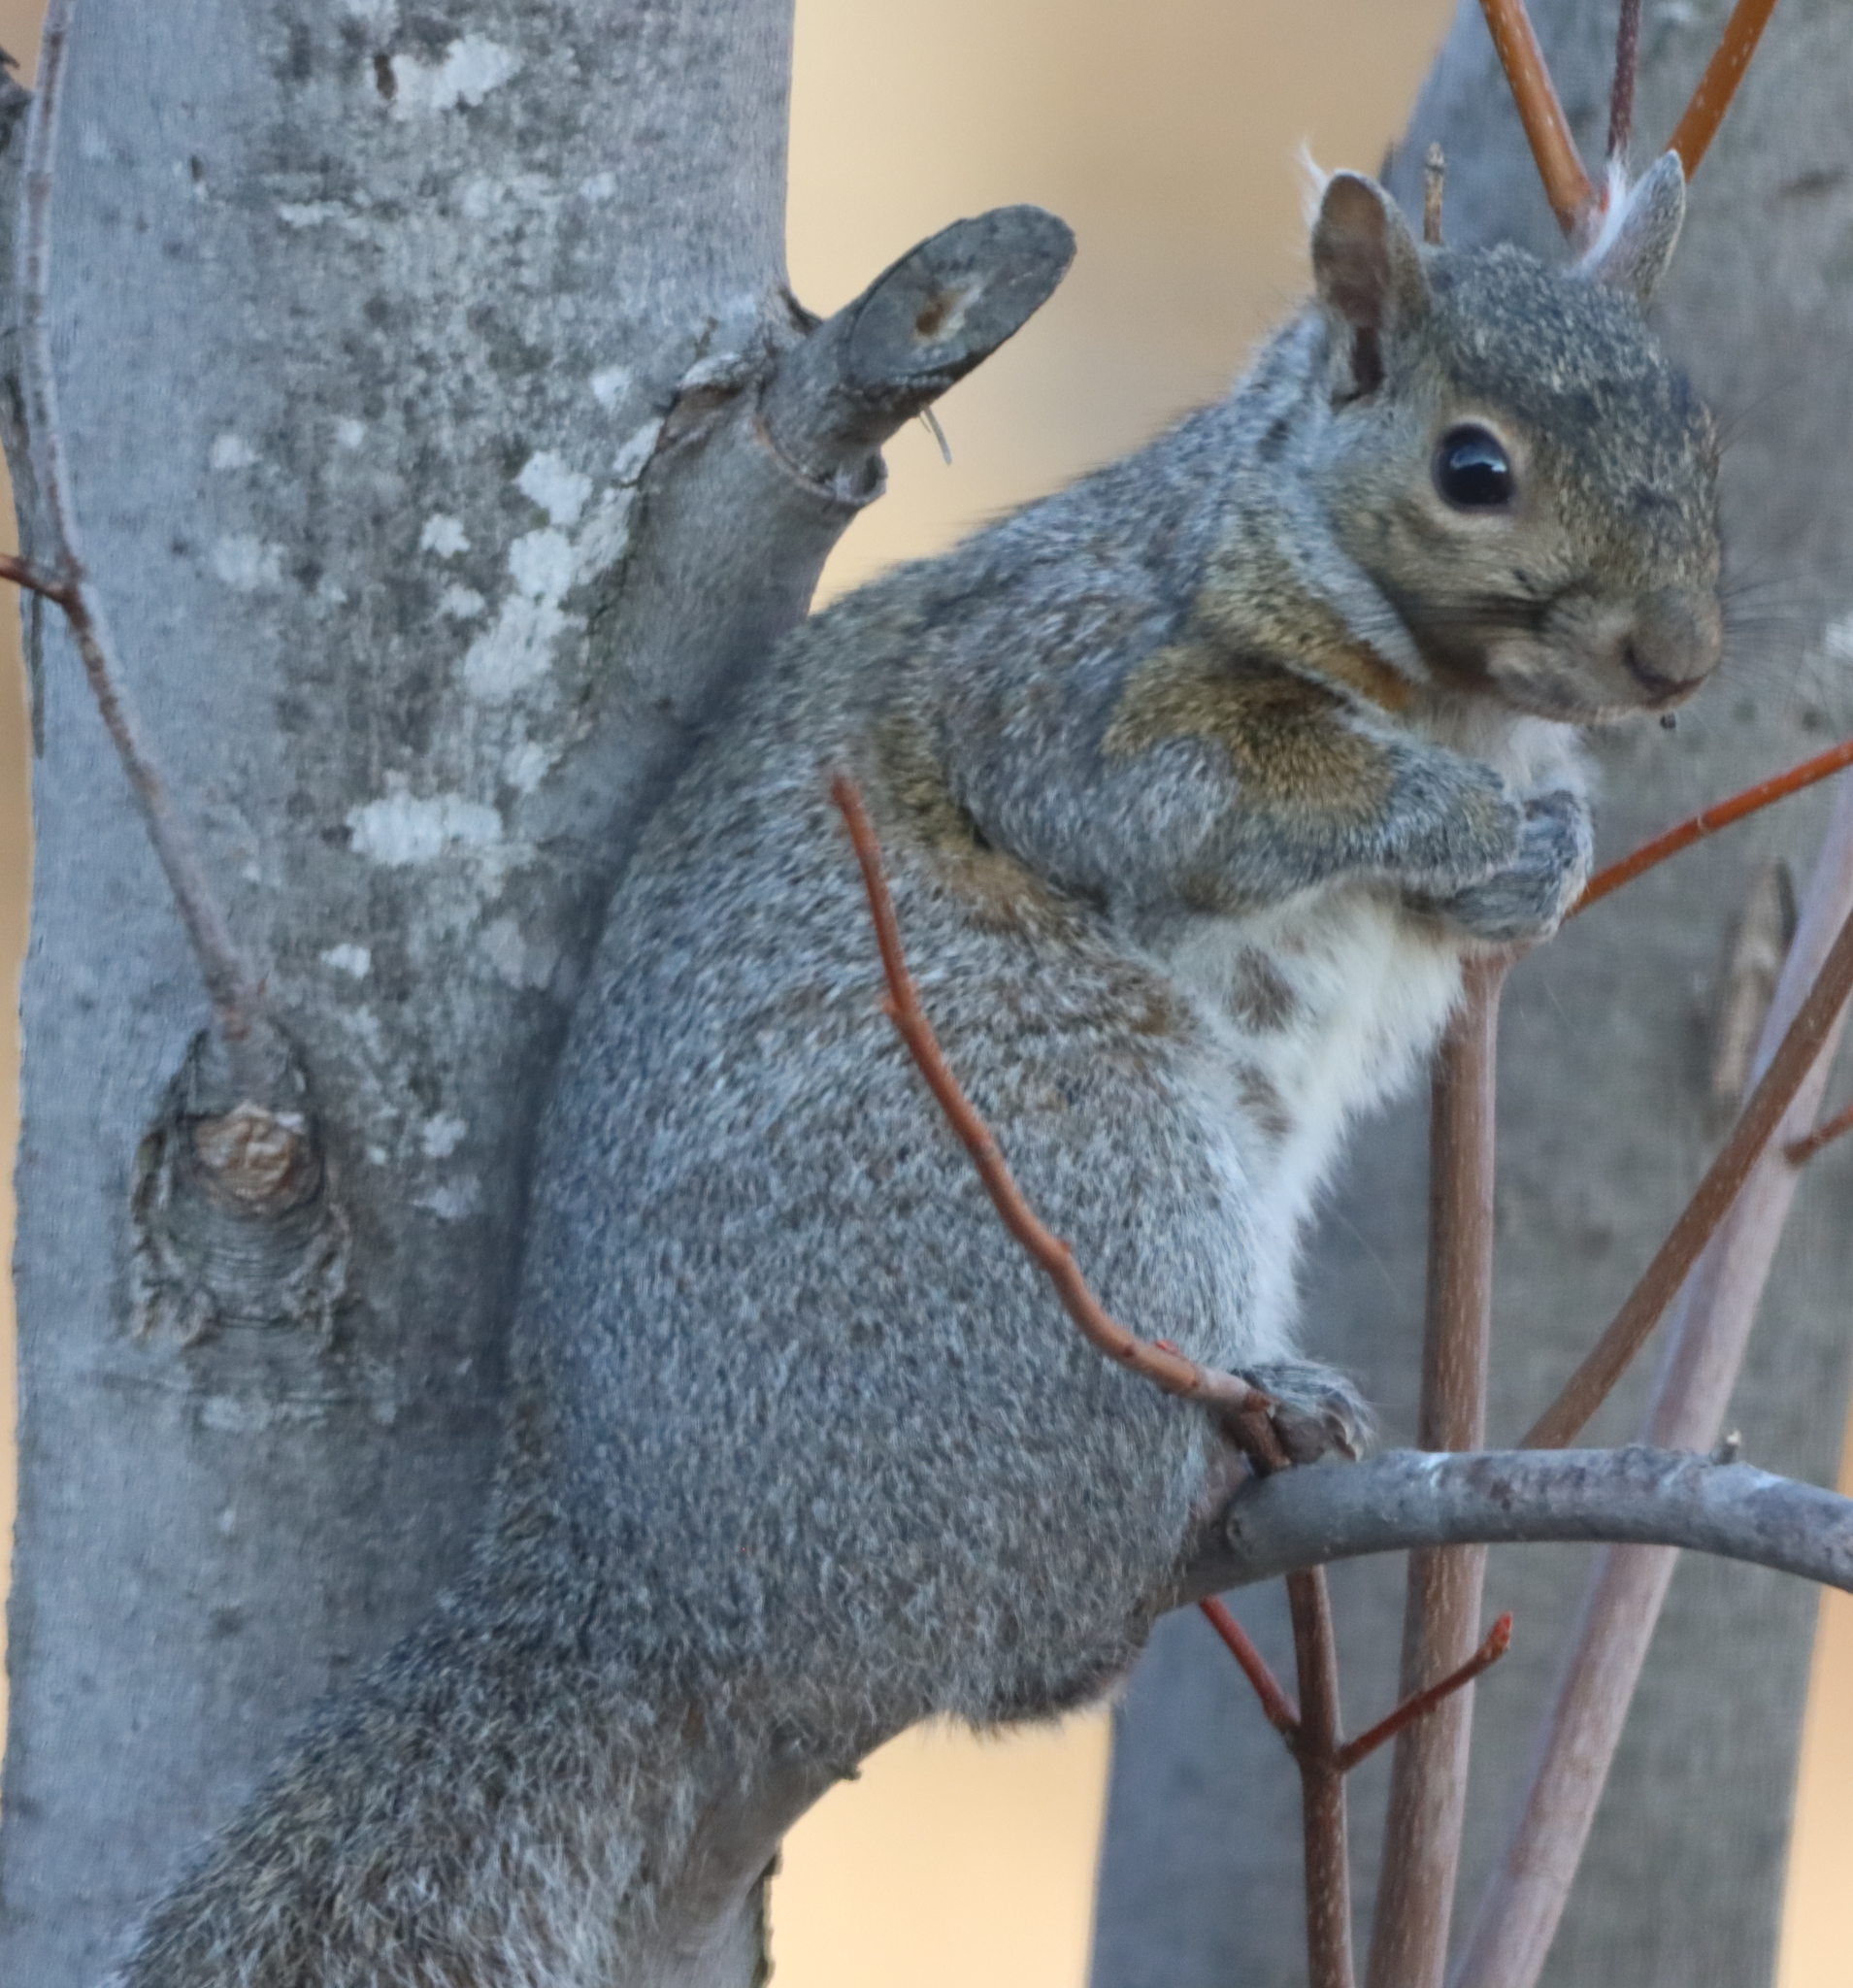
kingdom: Animalia
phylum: Chordata
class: Mammalia
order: Rodentia
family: Sciuridae
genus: Sciurus
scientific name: Sciurus carolinensis
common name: Eastern gray squirrel
